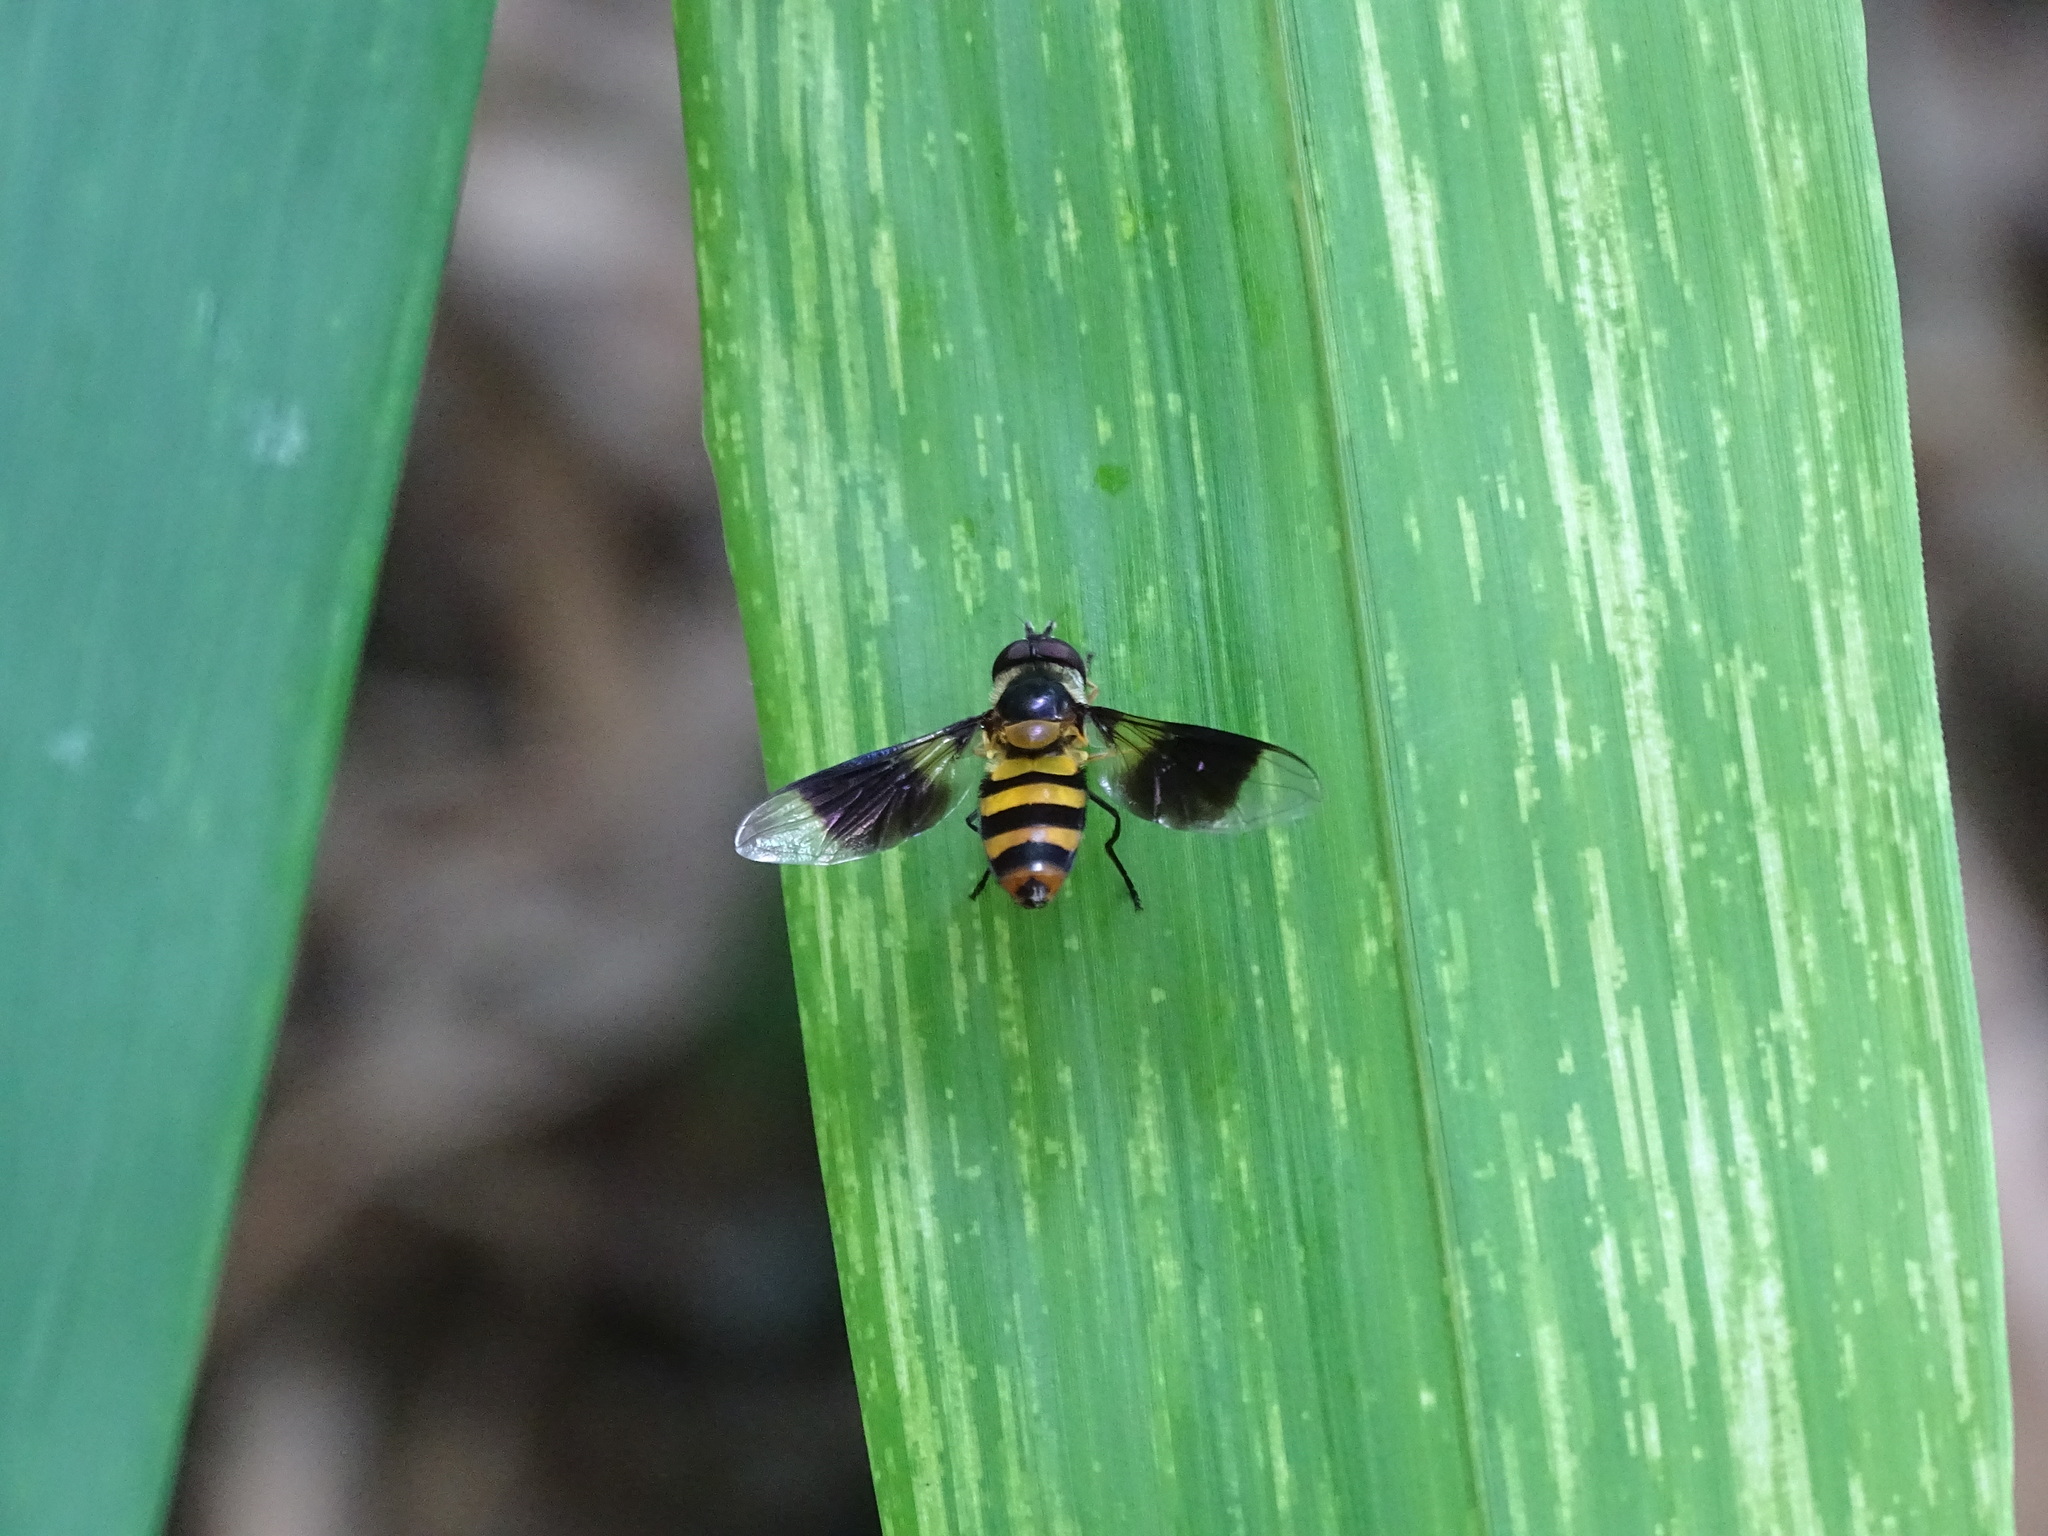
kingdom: Animalia
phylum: Arthropoda
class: Insecta
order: Diptera
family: Syrphidae
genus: Dideopsis
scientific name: Dideopsis aegrota
